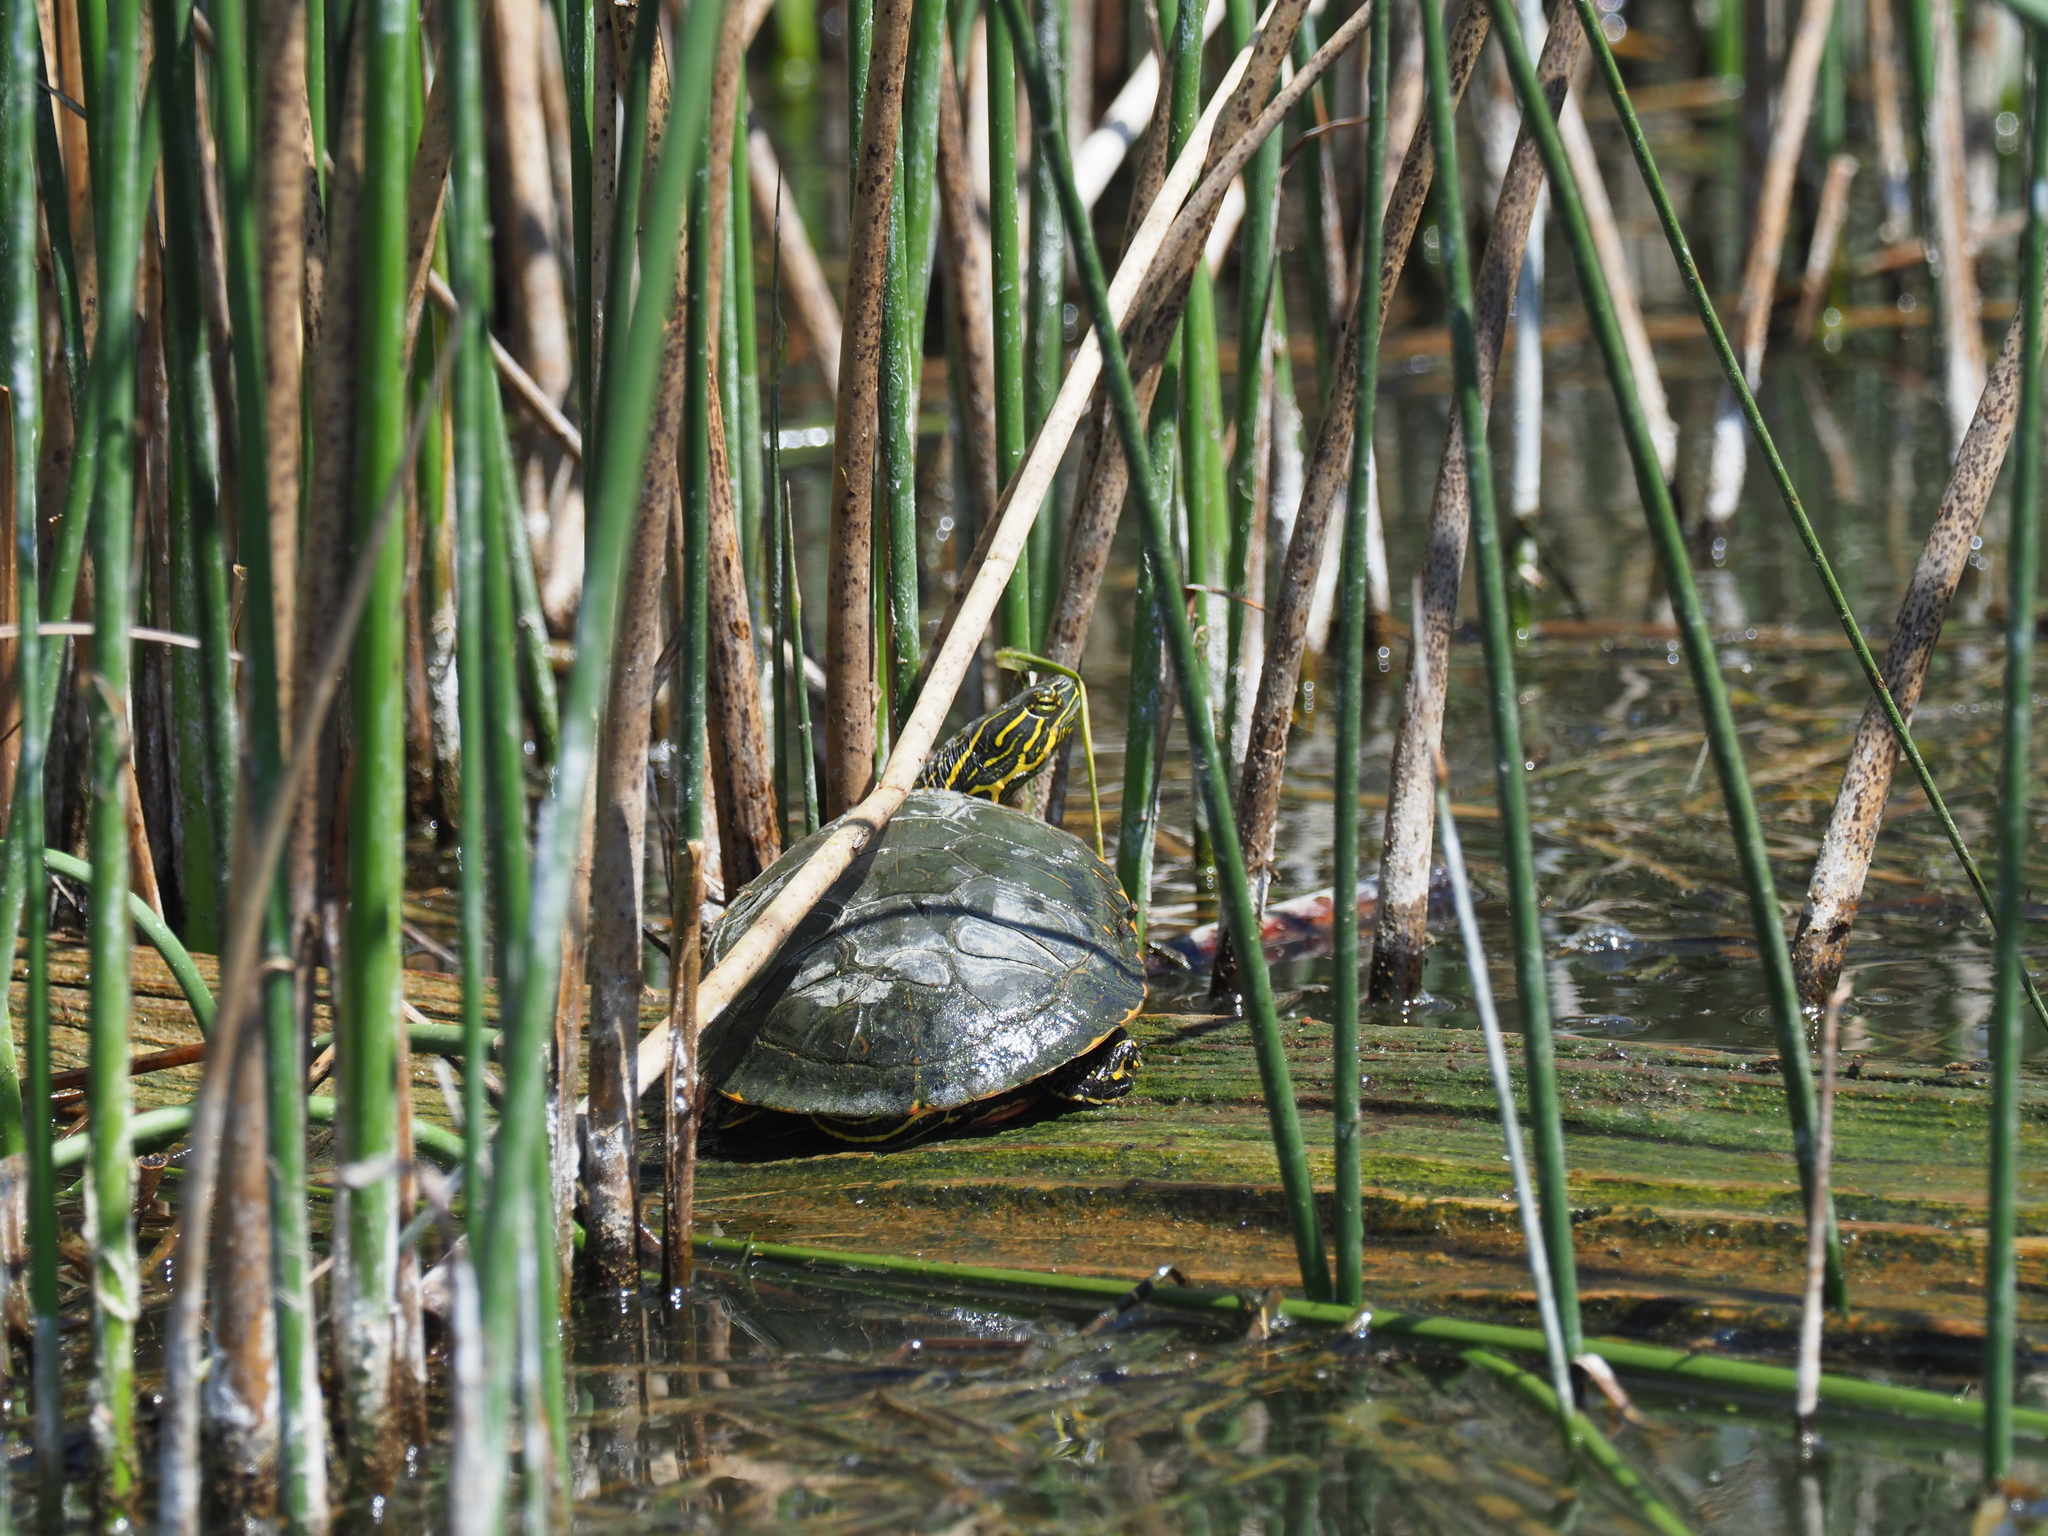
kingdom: Animalia
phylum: Chordata
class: Testudines
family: Emydidae
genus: Chrysemys
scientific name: Chrysemys picta
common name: Painted turtle
